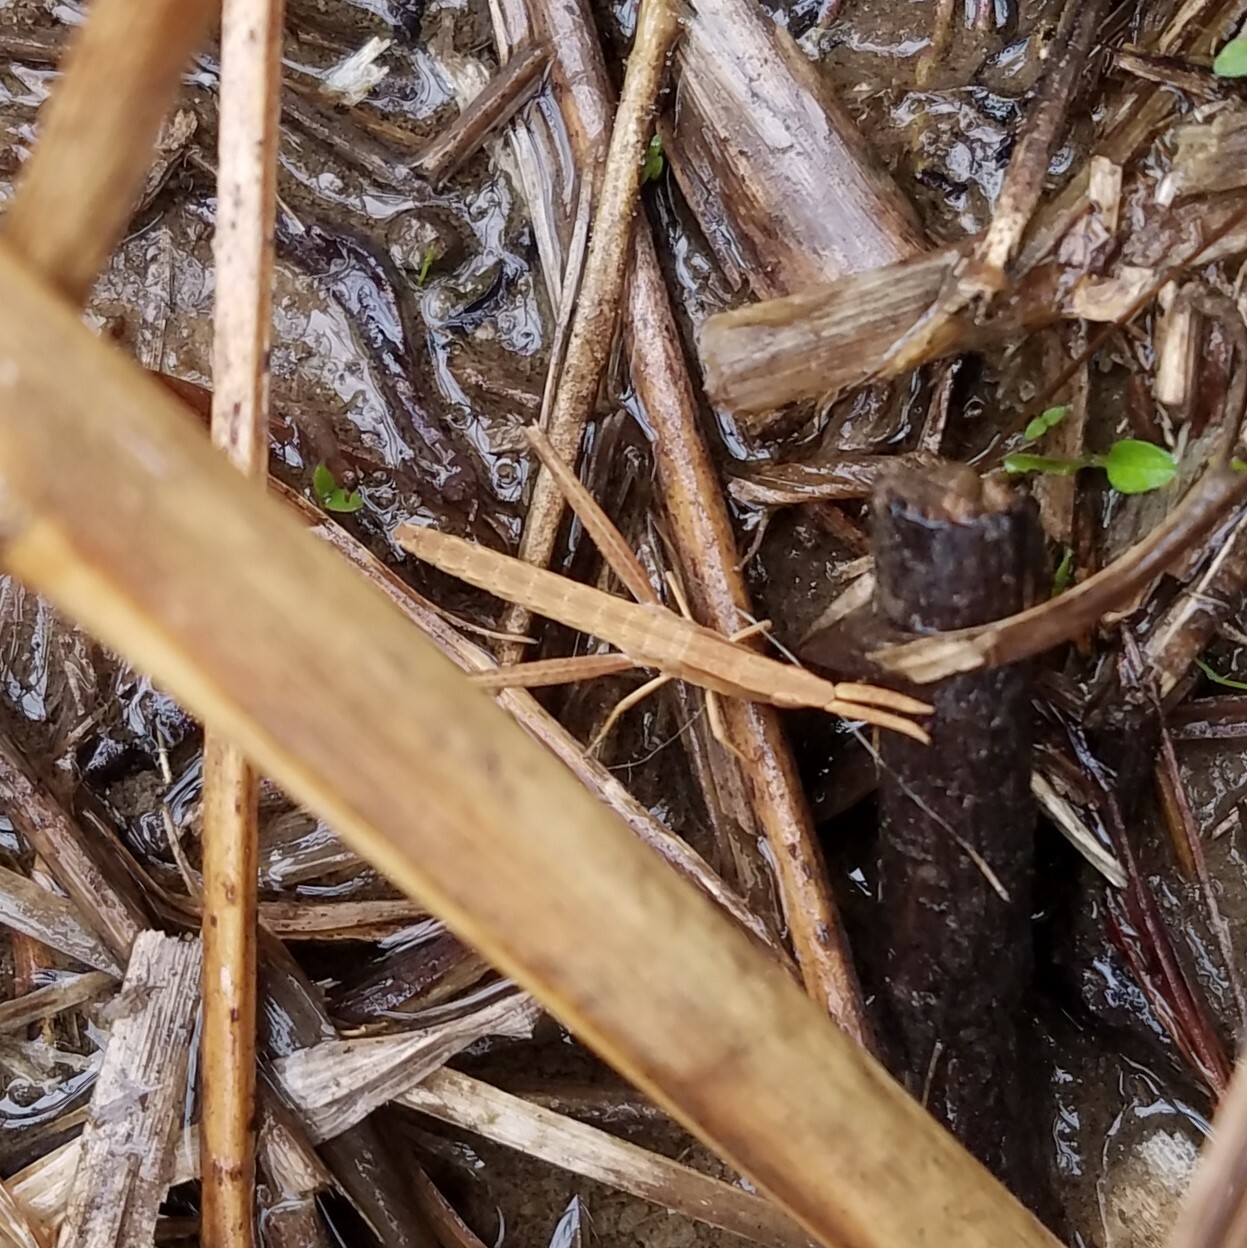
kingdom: Animalia
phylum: Arthropoda
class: Insecta
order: Orthoptera
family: Acrididae
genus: Achurum
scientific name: Achurum carinatum
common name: Long-headed toothpick grasshopper
